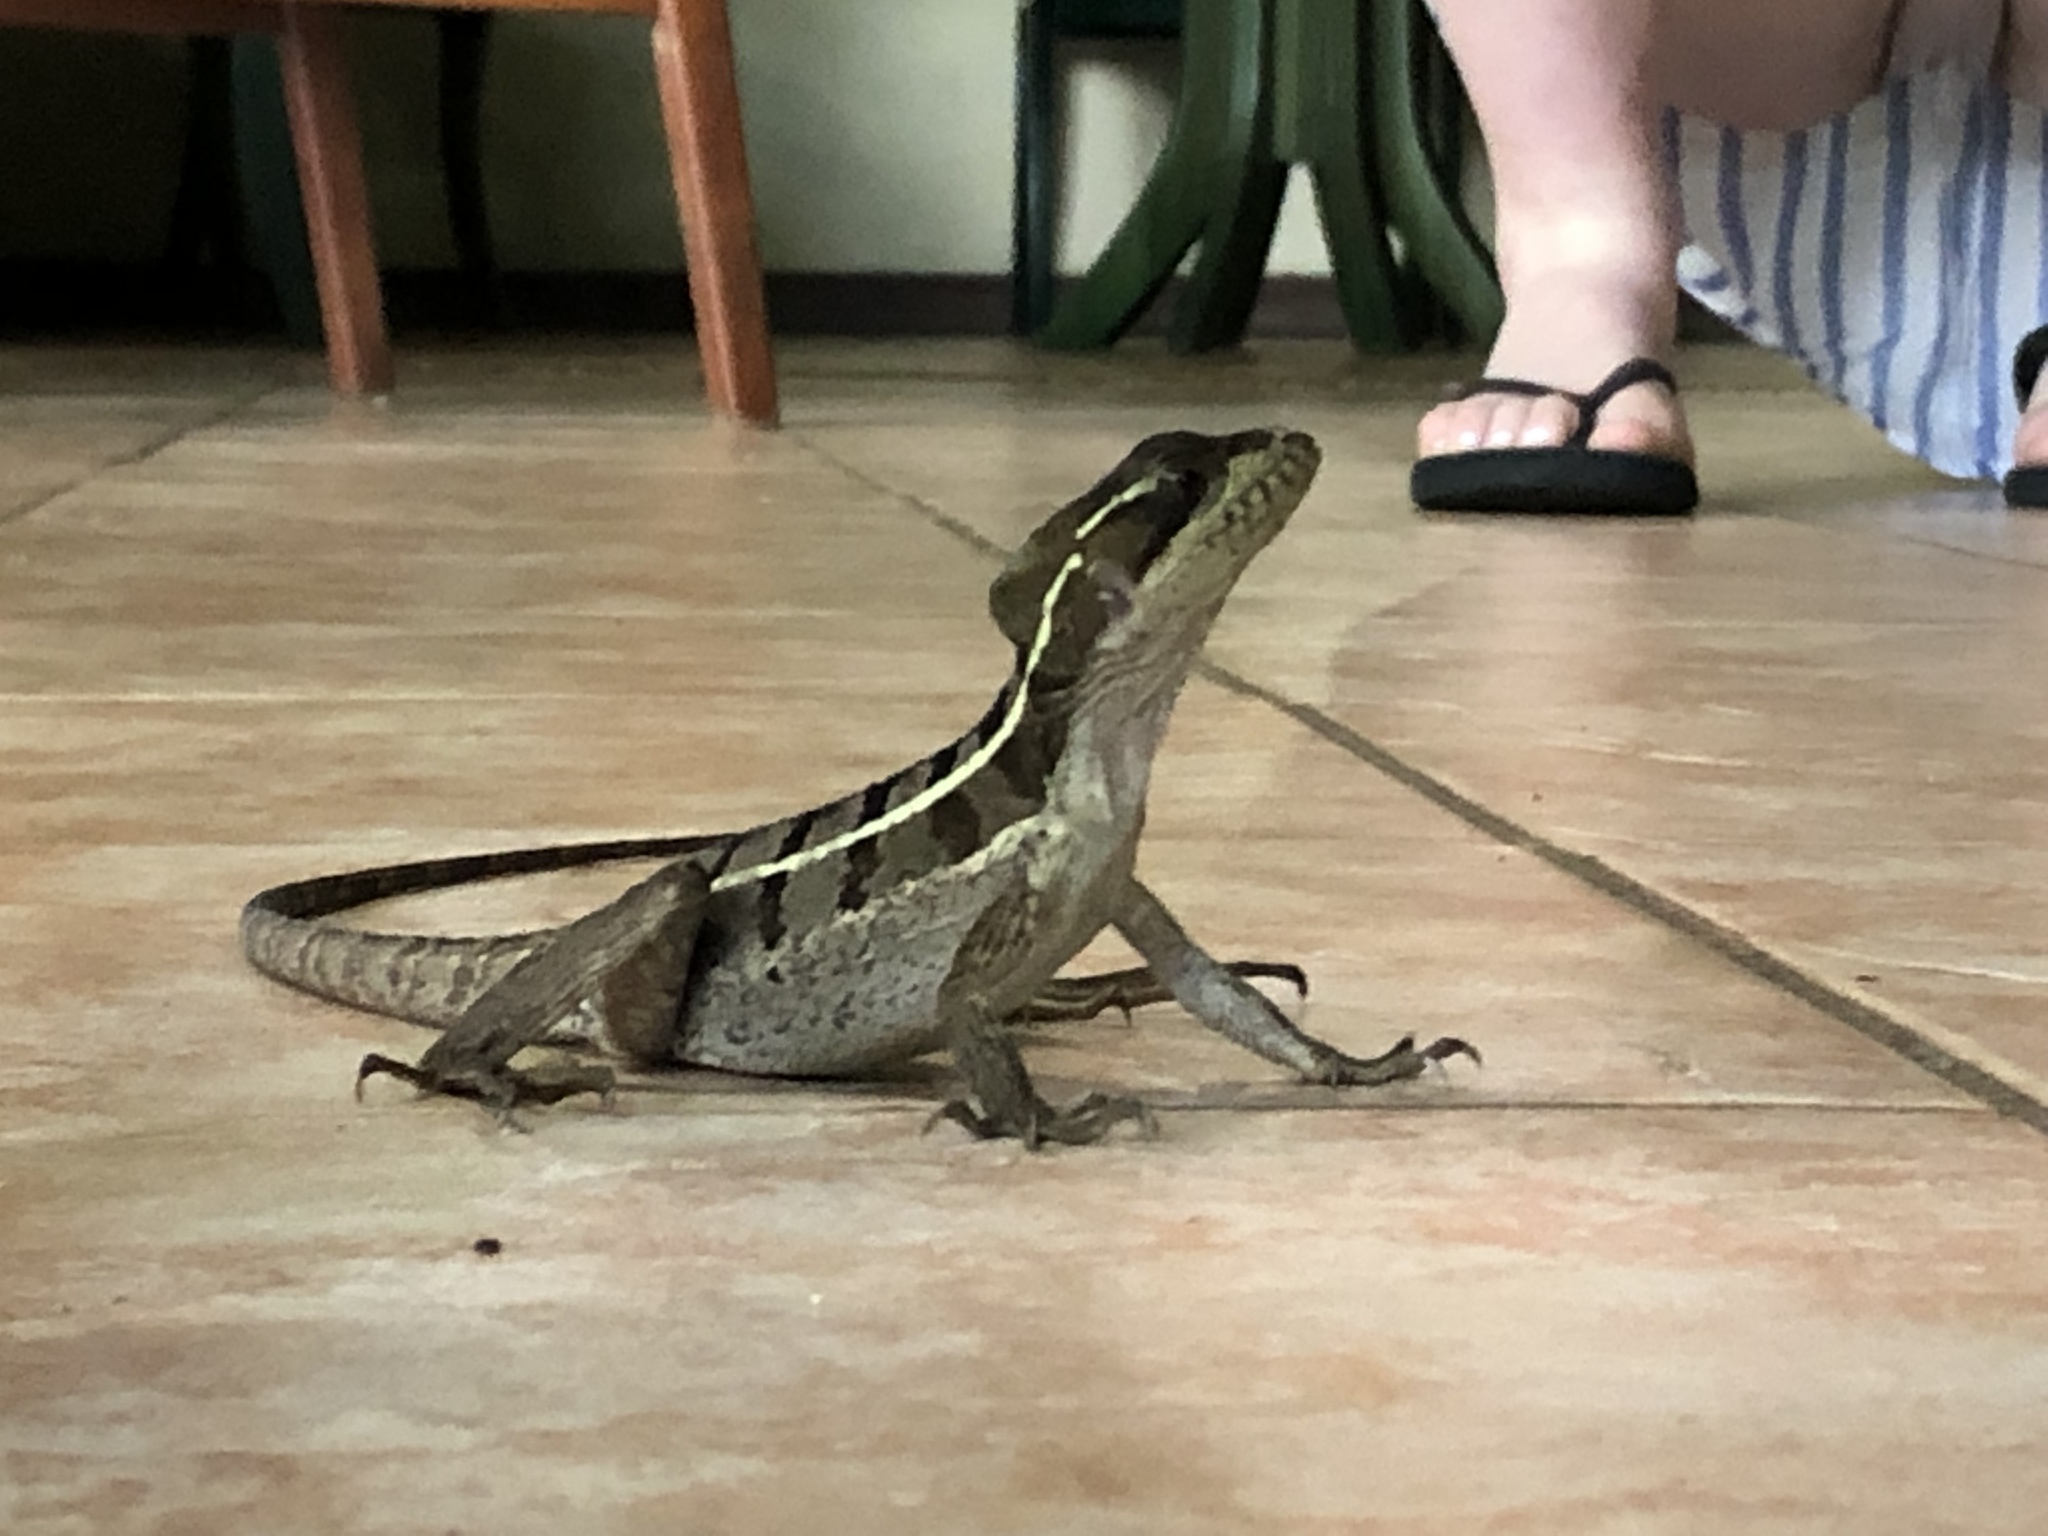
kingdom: Animalia
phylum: Chordata
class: Squamata
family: Corytophanidae
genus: Basiliscus
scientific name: Basiliscus vittatus
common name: Brown basilisk
